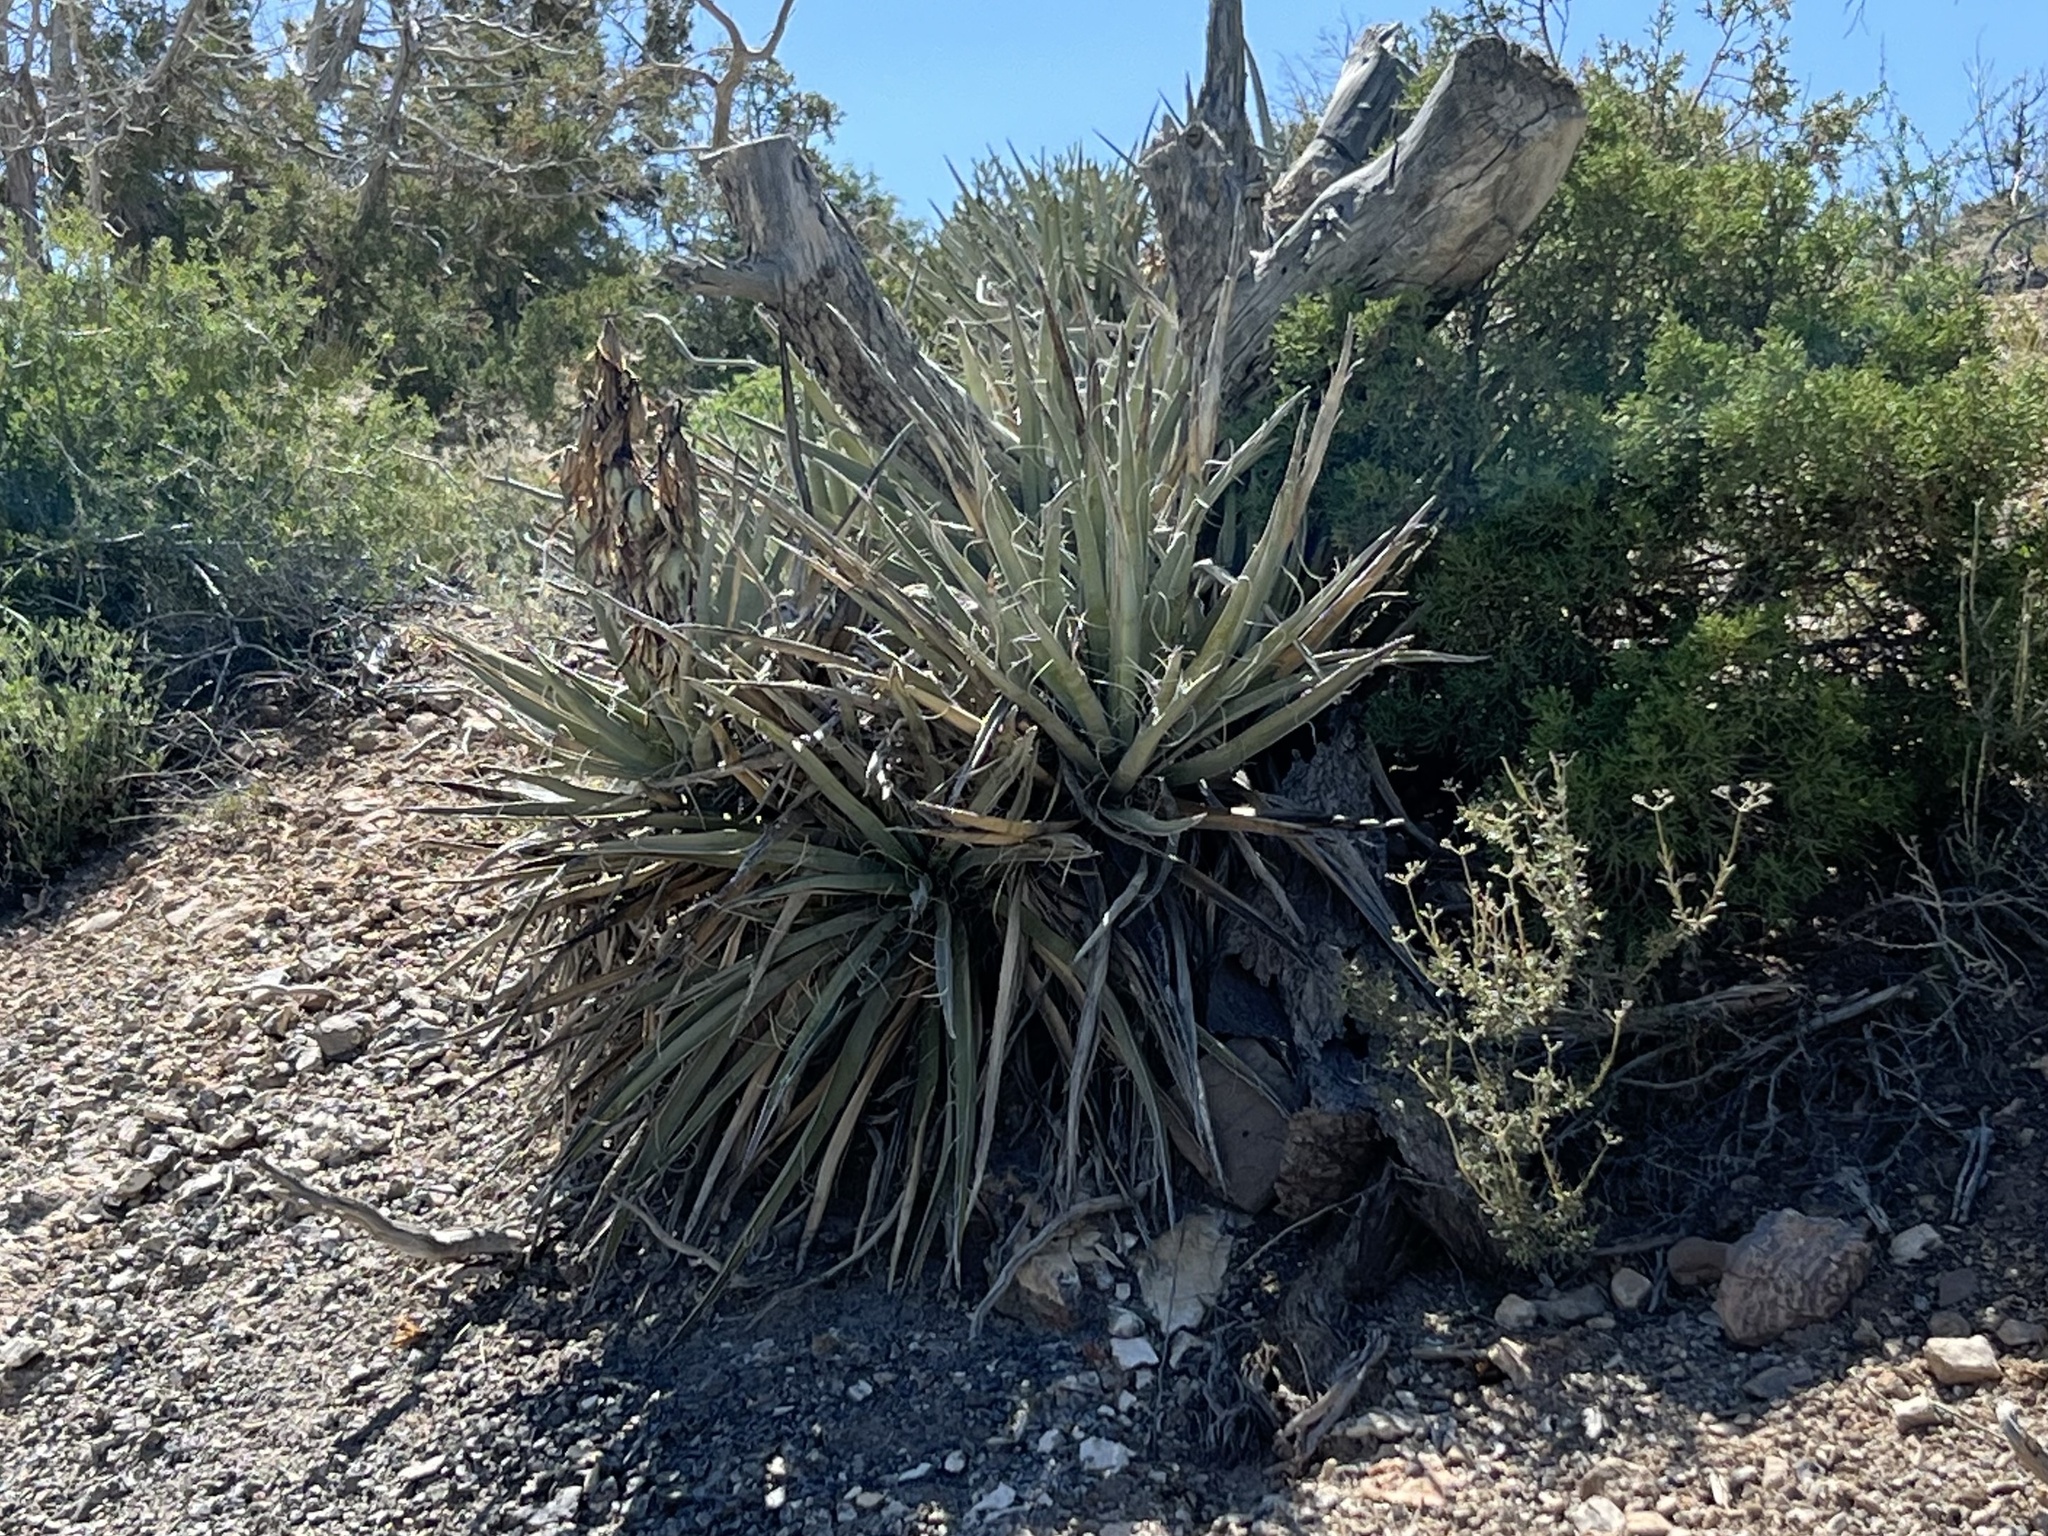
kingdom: Plantae
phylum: Tracheophyta
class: Liliopsida
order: Asparagales
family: Asparagaceae
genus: Yucca
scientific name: Yucca baccata
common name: Banana yucca
